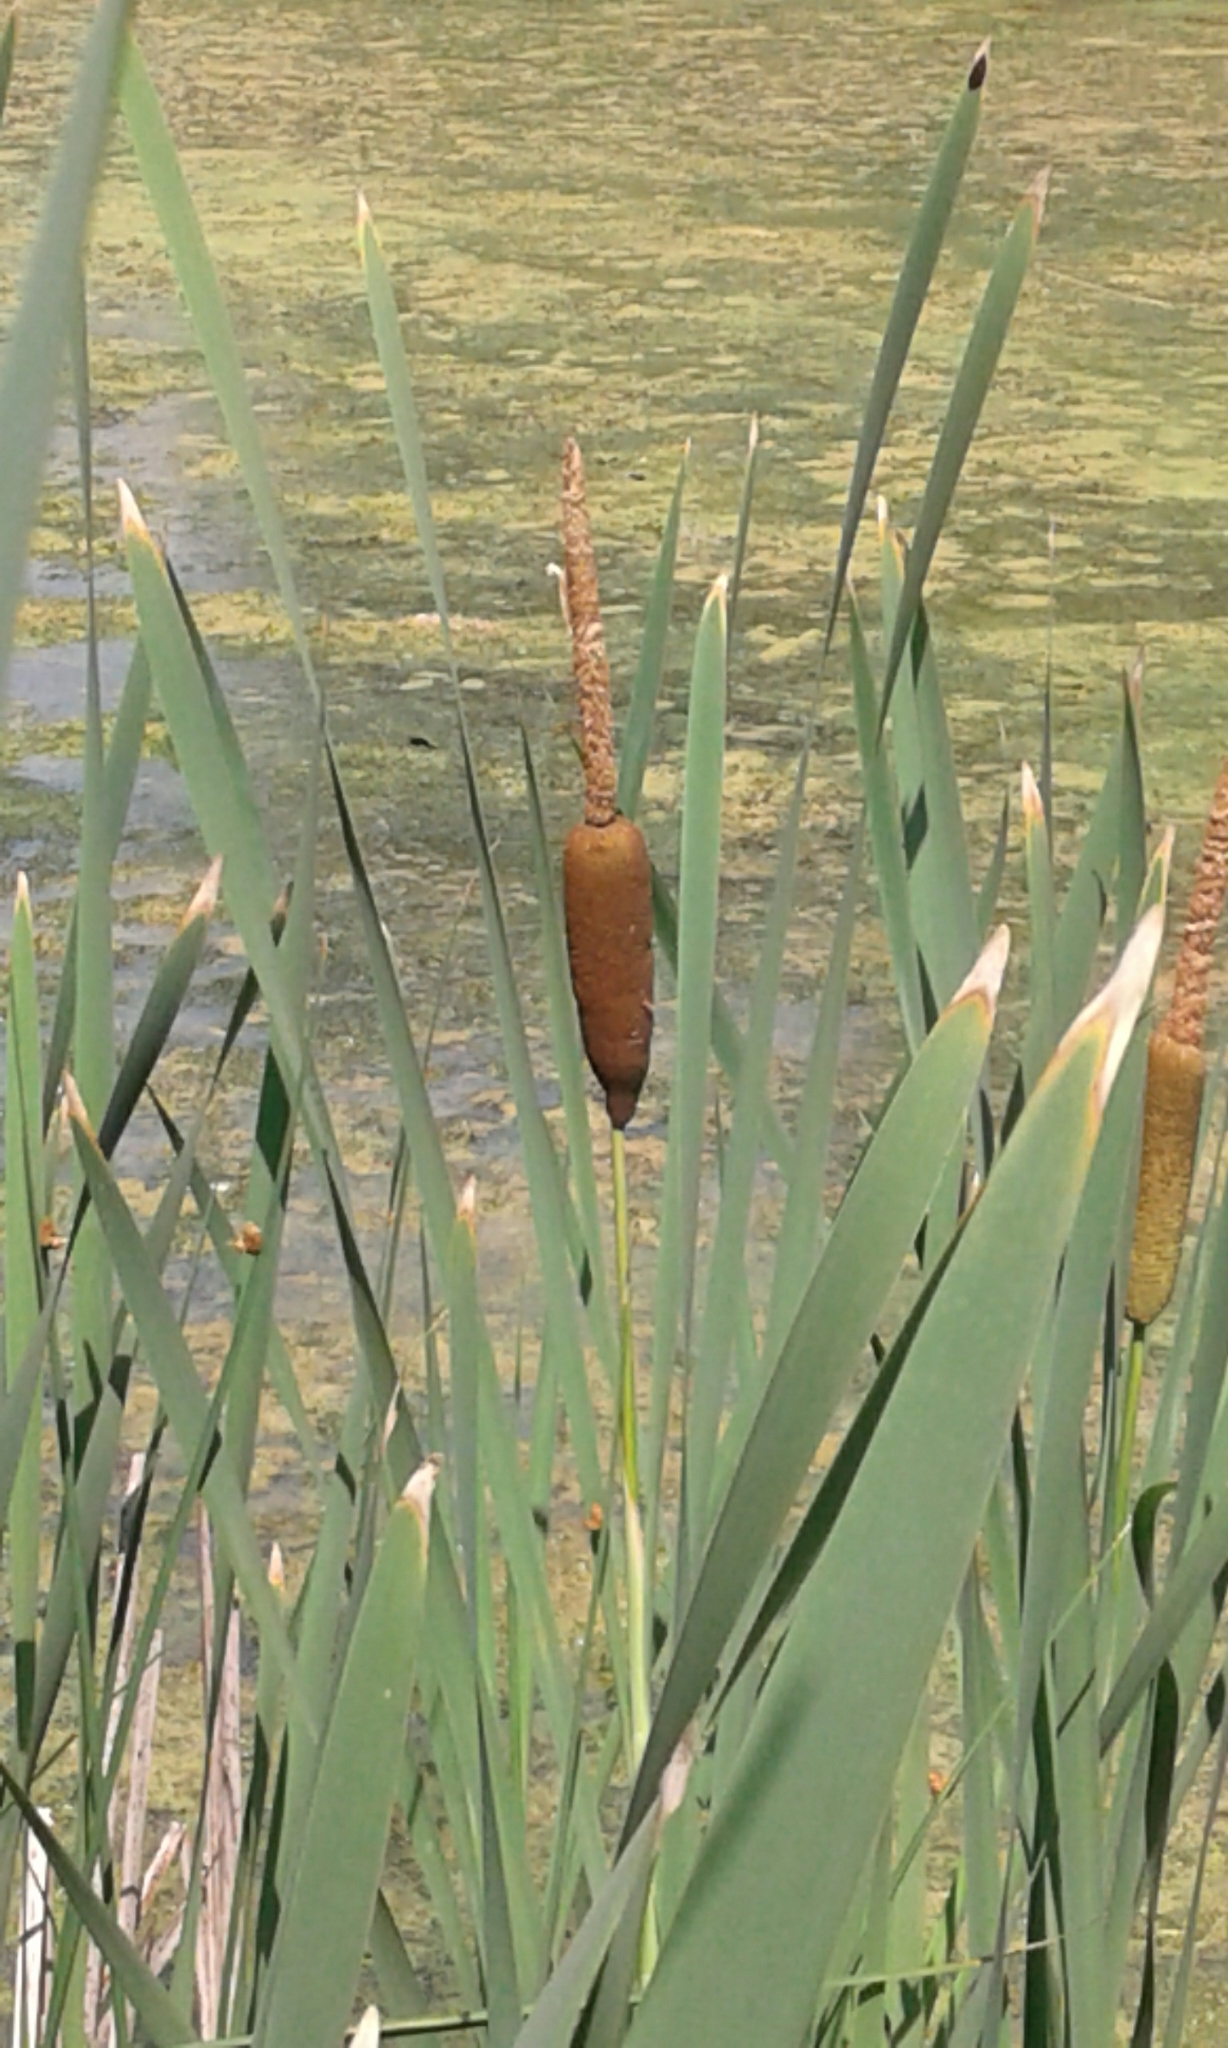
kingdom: Plantae
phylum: Tracheophyta
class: Liliopsida
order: Poales
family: Typhaceae
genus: Typha
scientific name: Typha latifolia
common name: Broadleaf cattail
